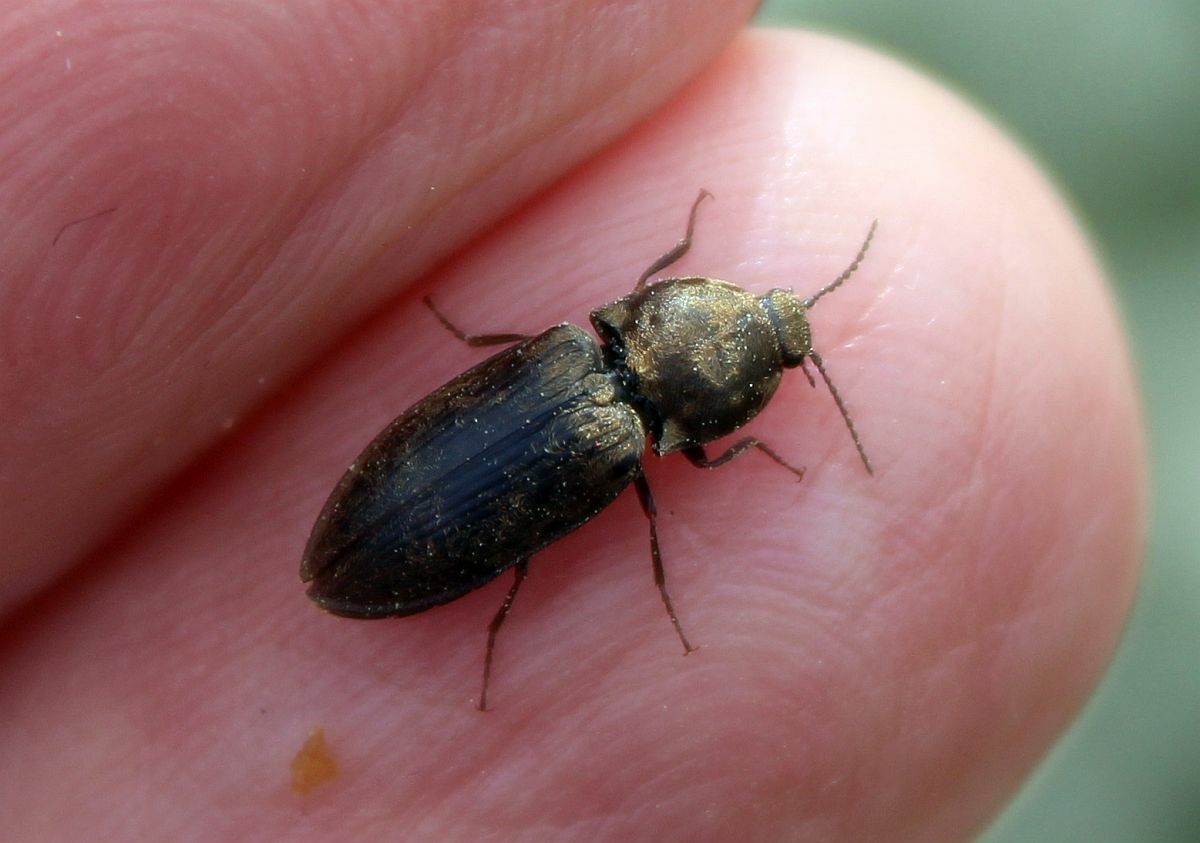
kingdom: Animalia
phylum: Arthropoda
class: Insecta
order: Coleoptera
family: Elateridae
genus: Prosternon
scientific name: Prosternon tessellatum
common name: Chequered click beetle
